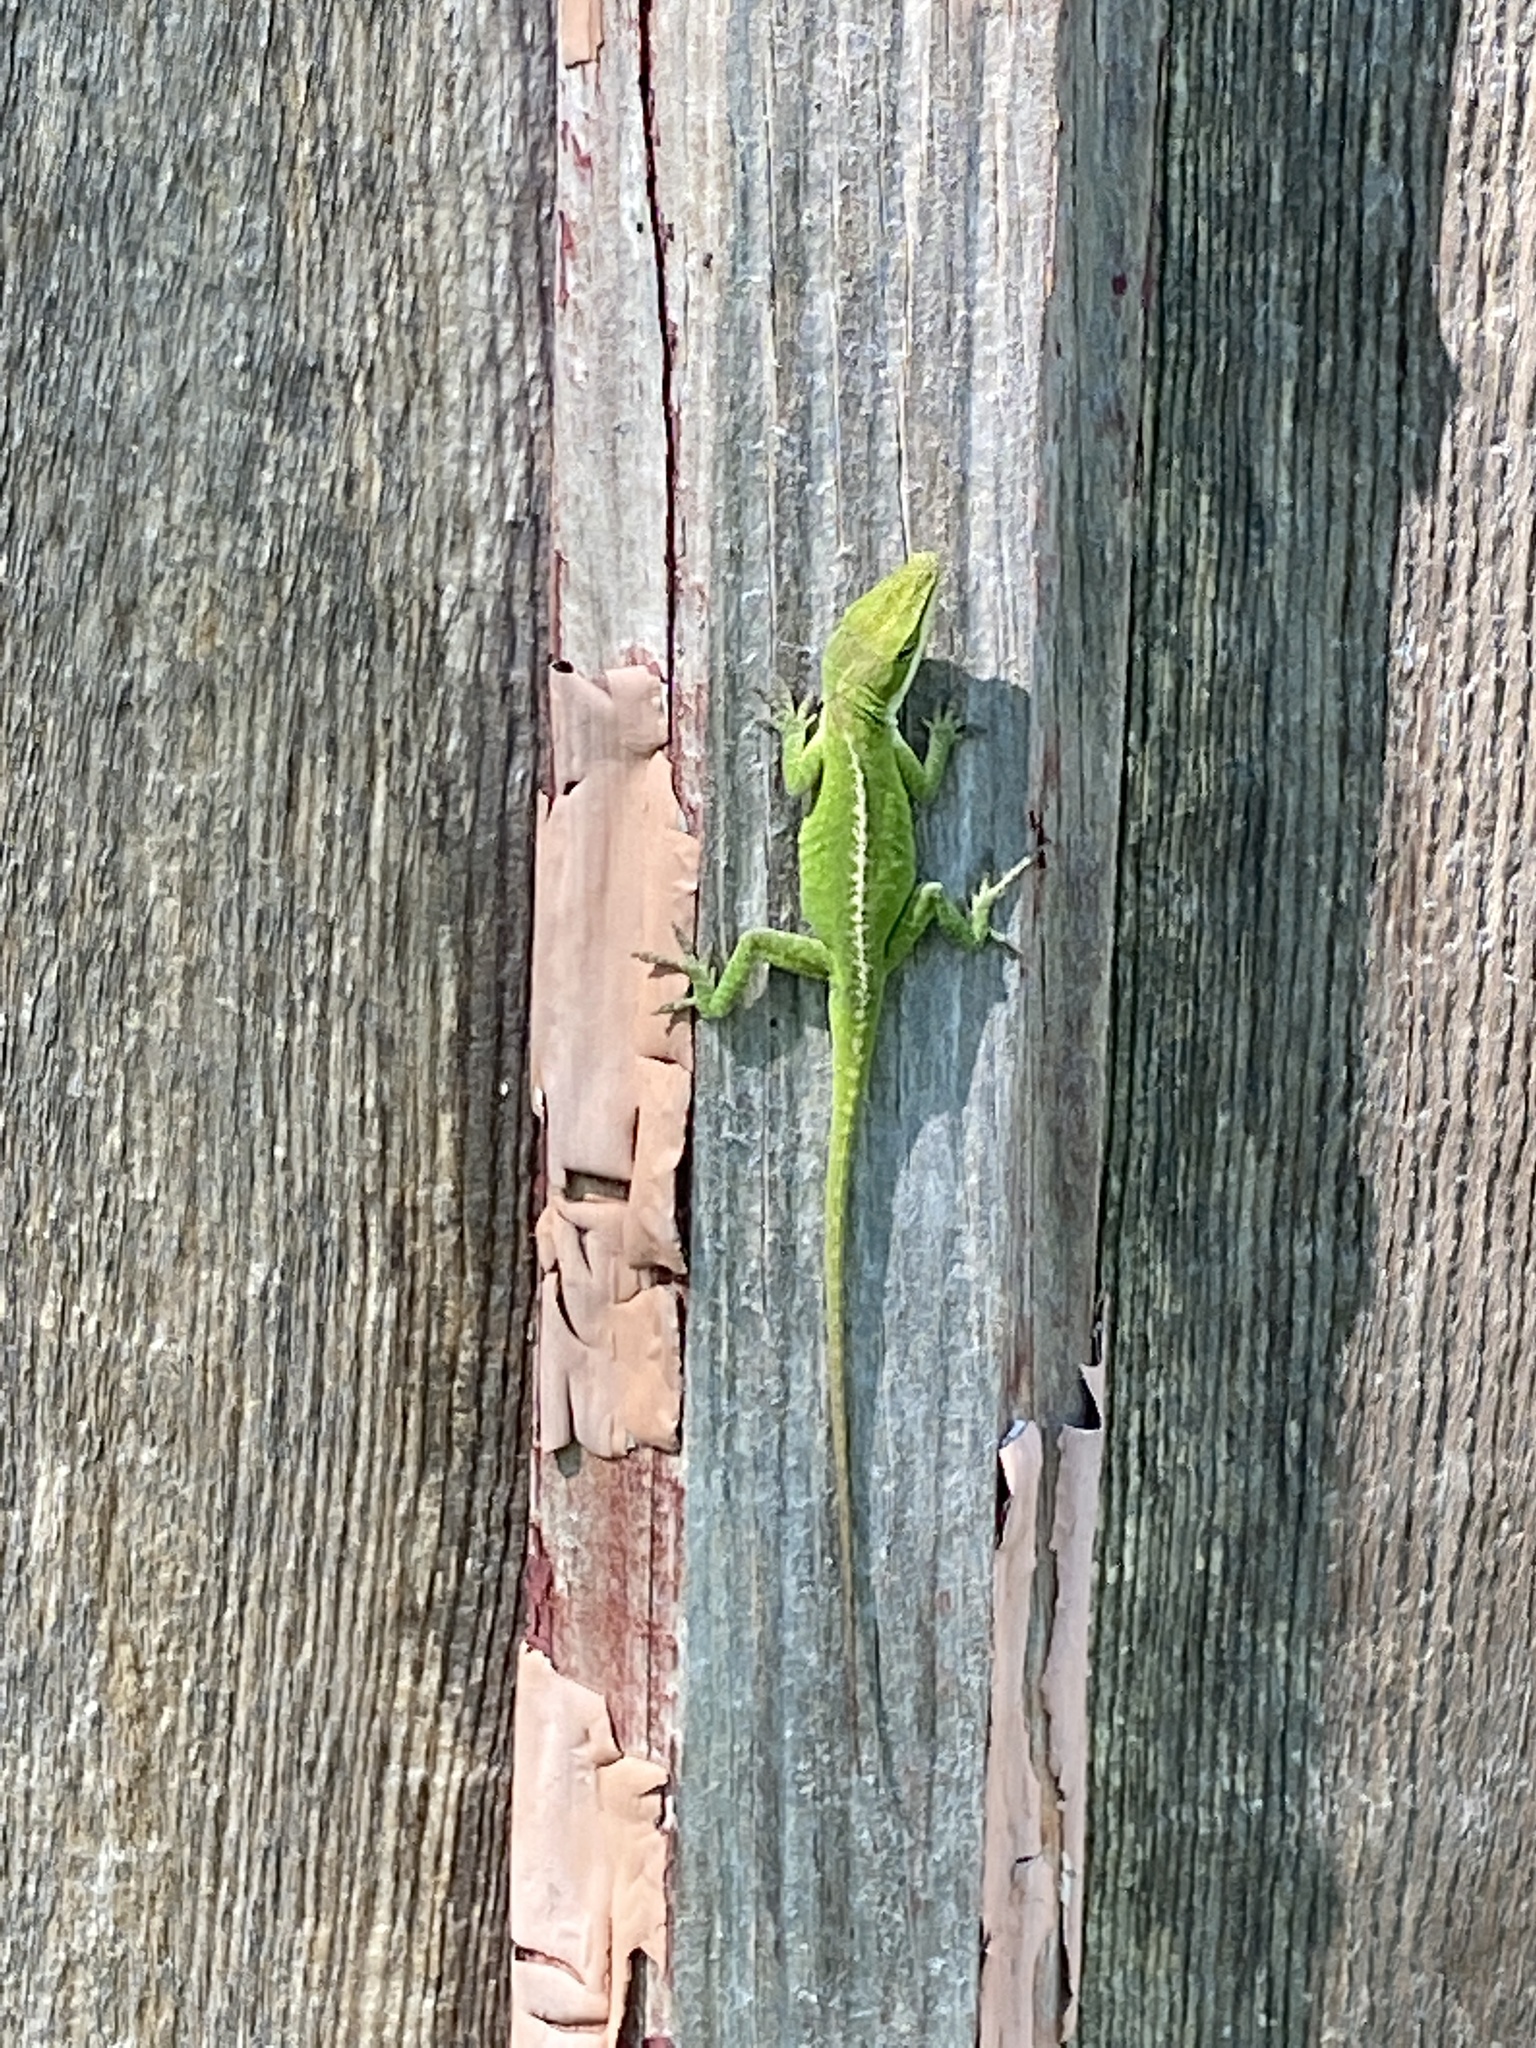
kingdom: Animalia
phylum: Chordata
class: Squamata
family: Dactyloidae
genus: Anolis
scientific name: Anolis carolinensis
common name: Green anole
